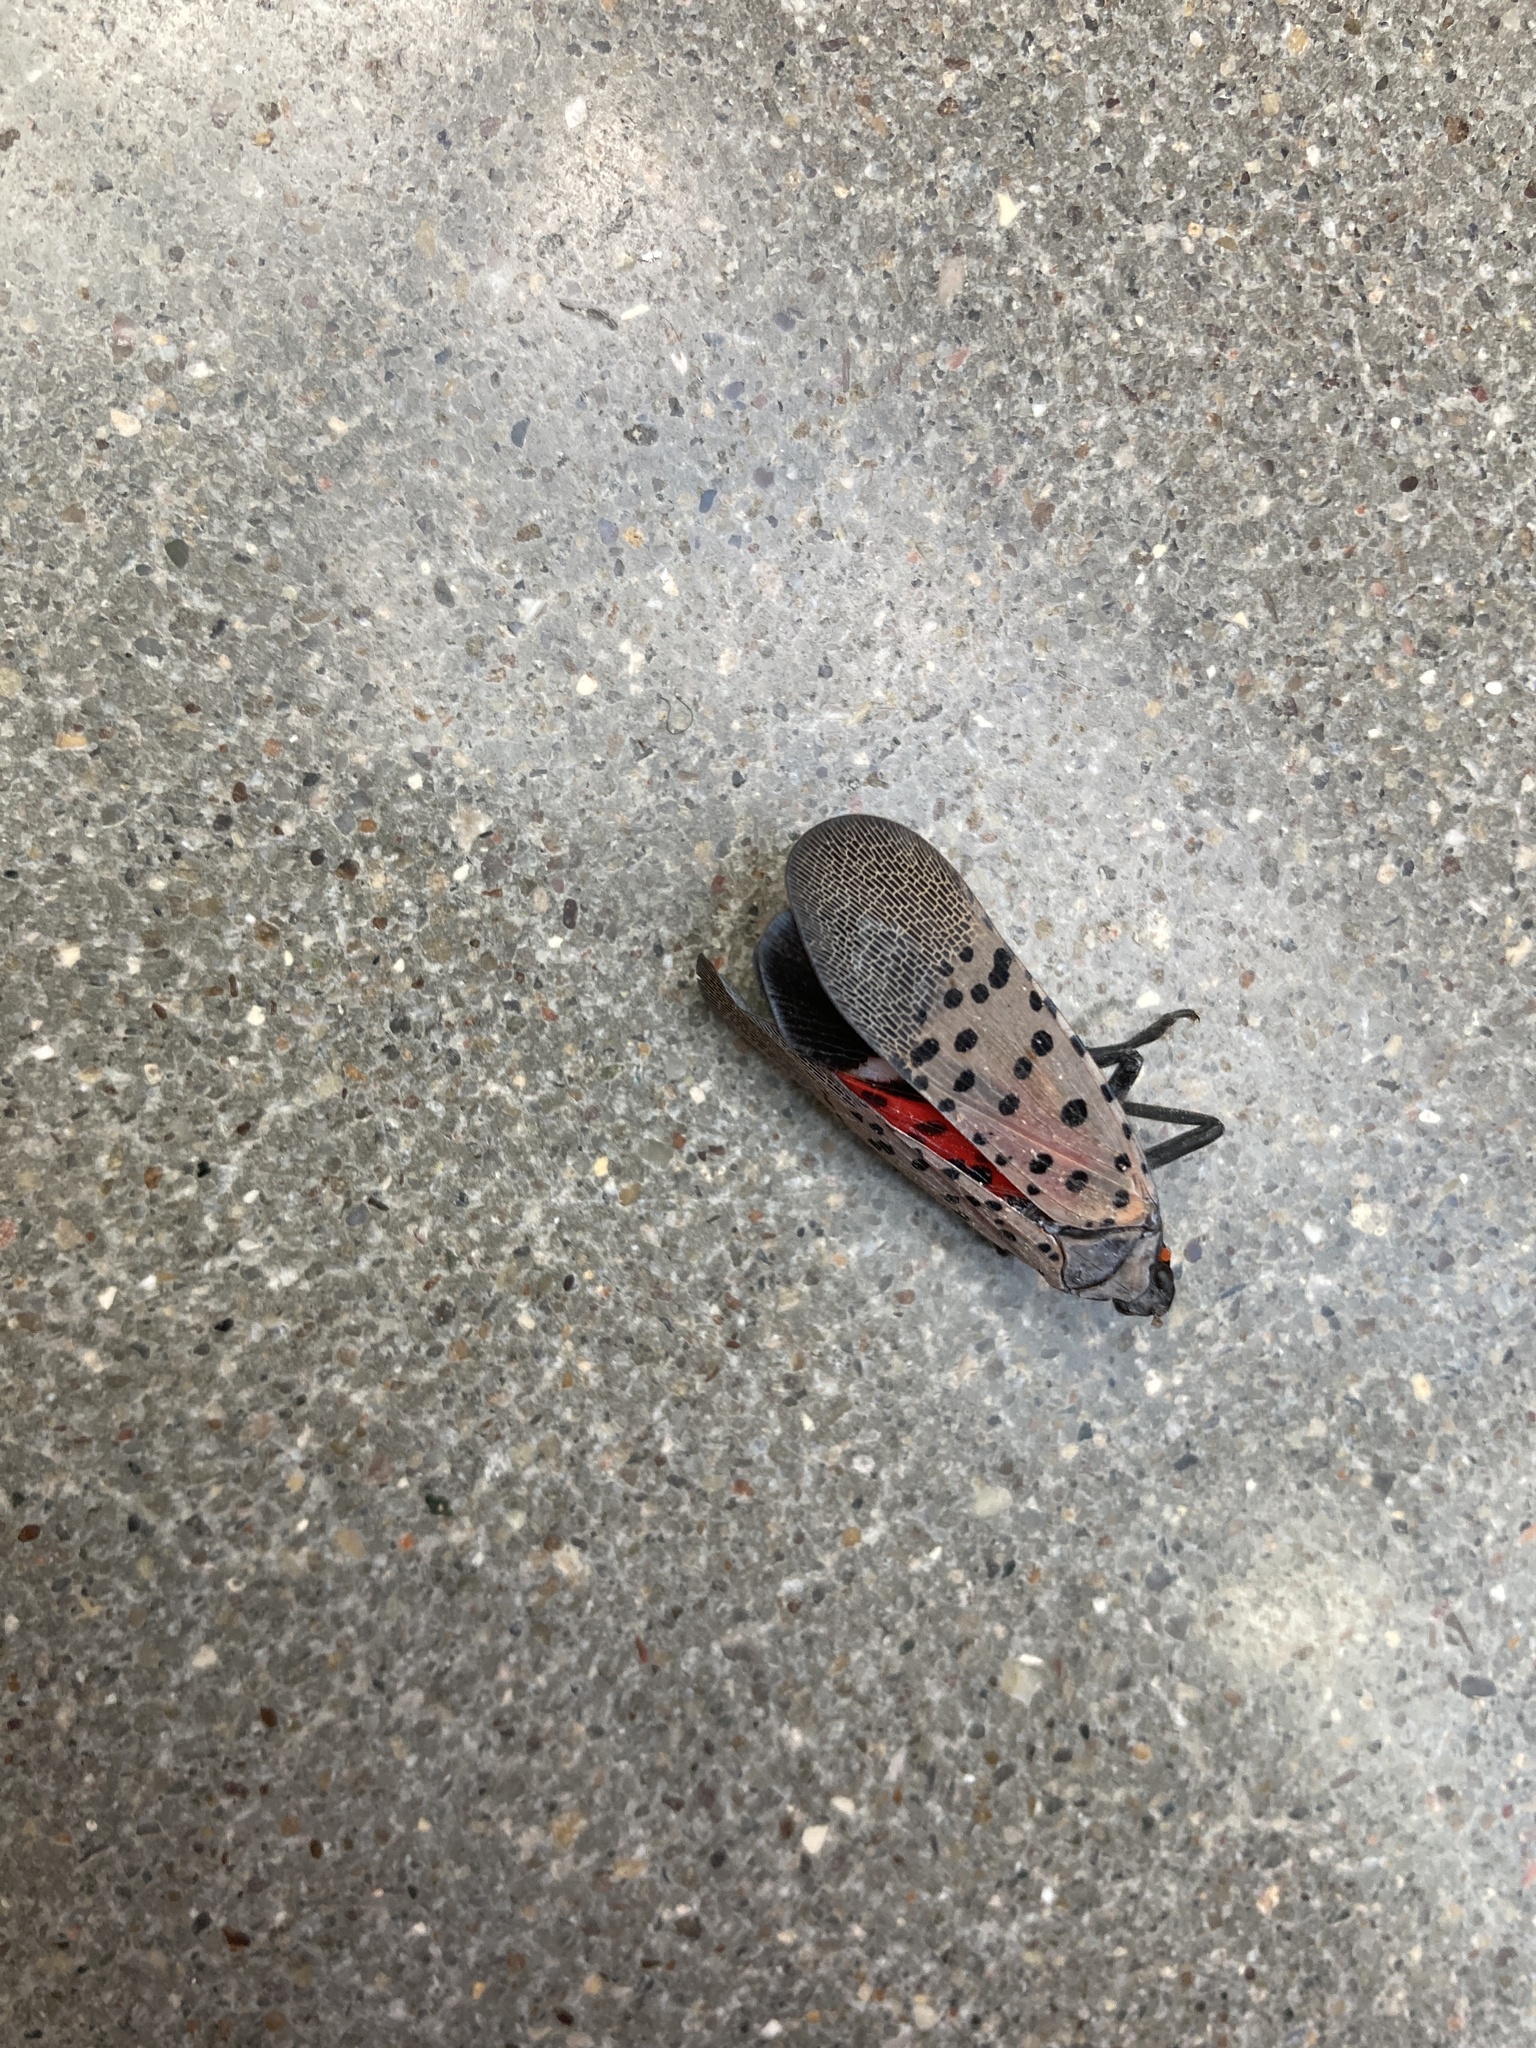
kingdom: Animalia
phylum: Arthropoda
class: Insecta
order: Hemiptera
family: Fulgoridae
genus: Lycorma
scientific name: Lycorma delicatula
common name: Spotted lanternfly
